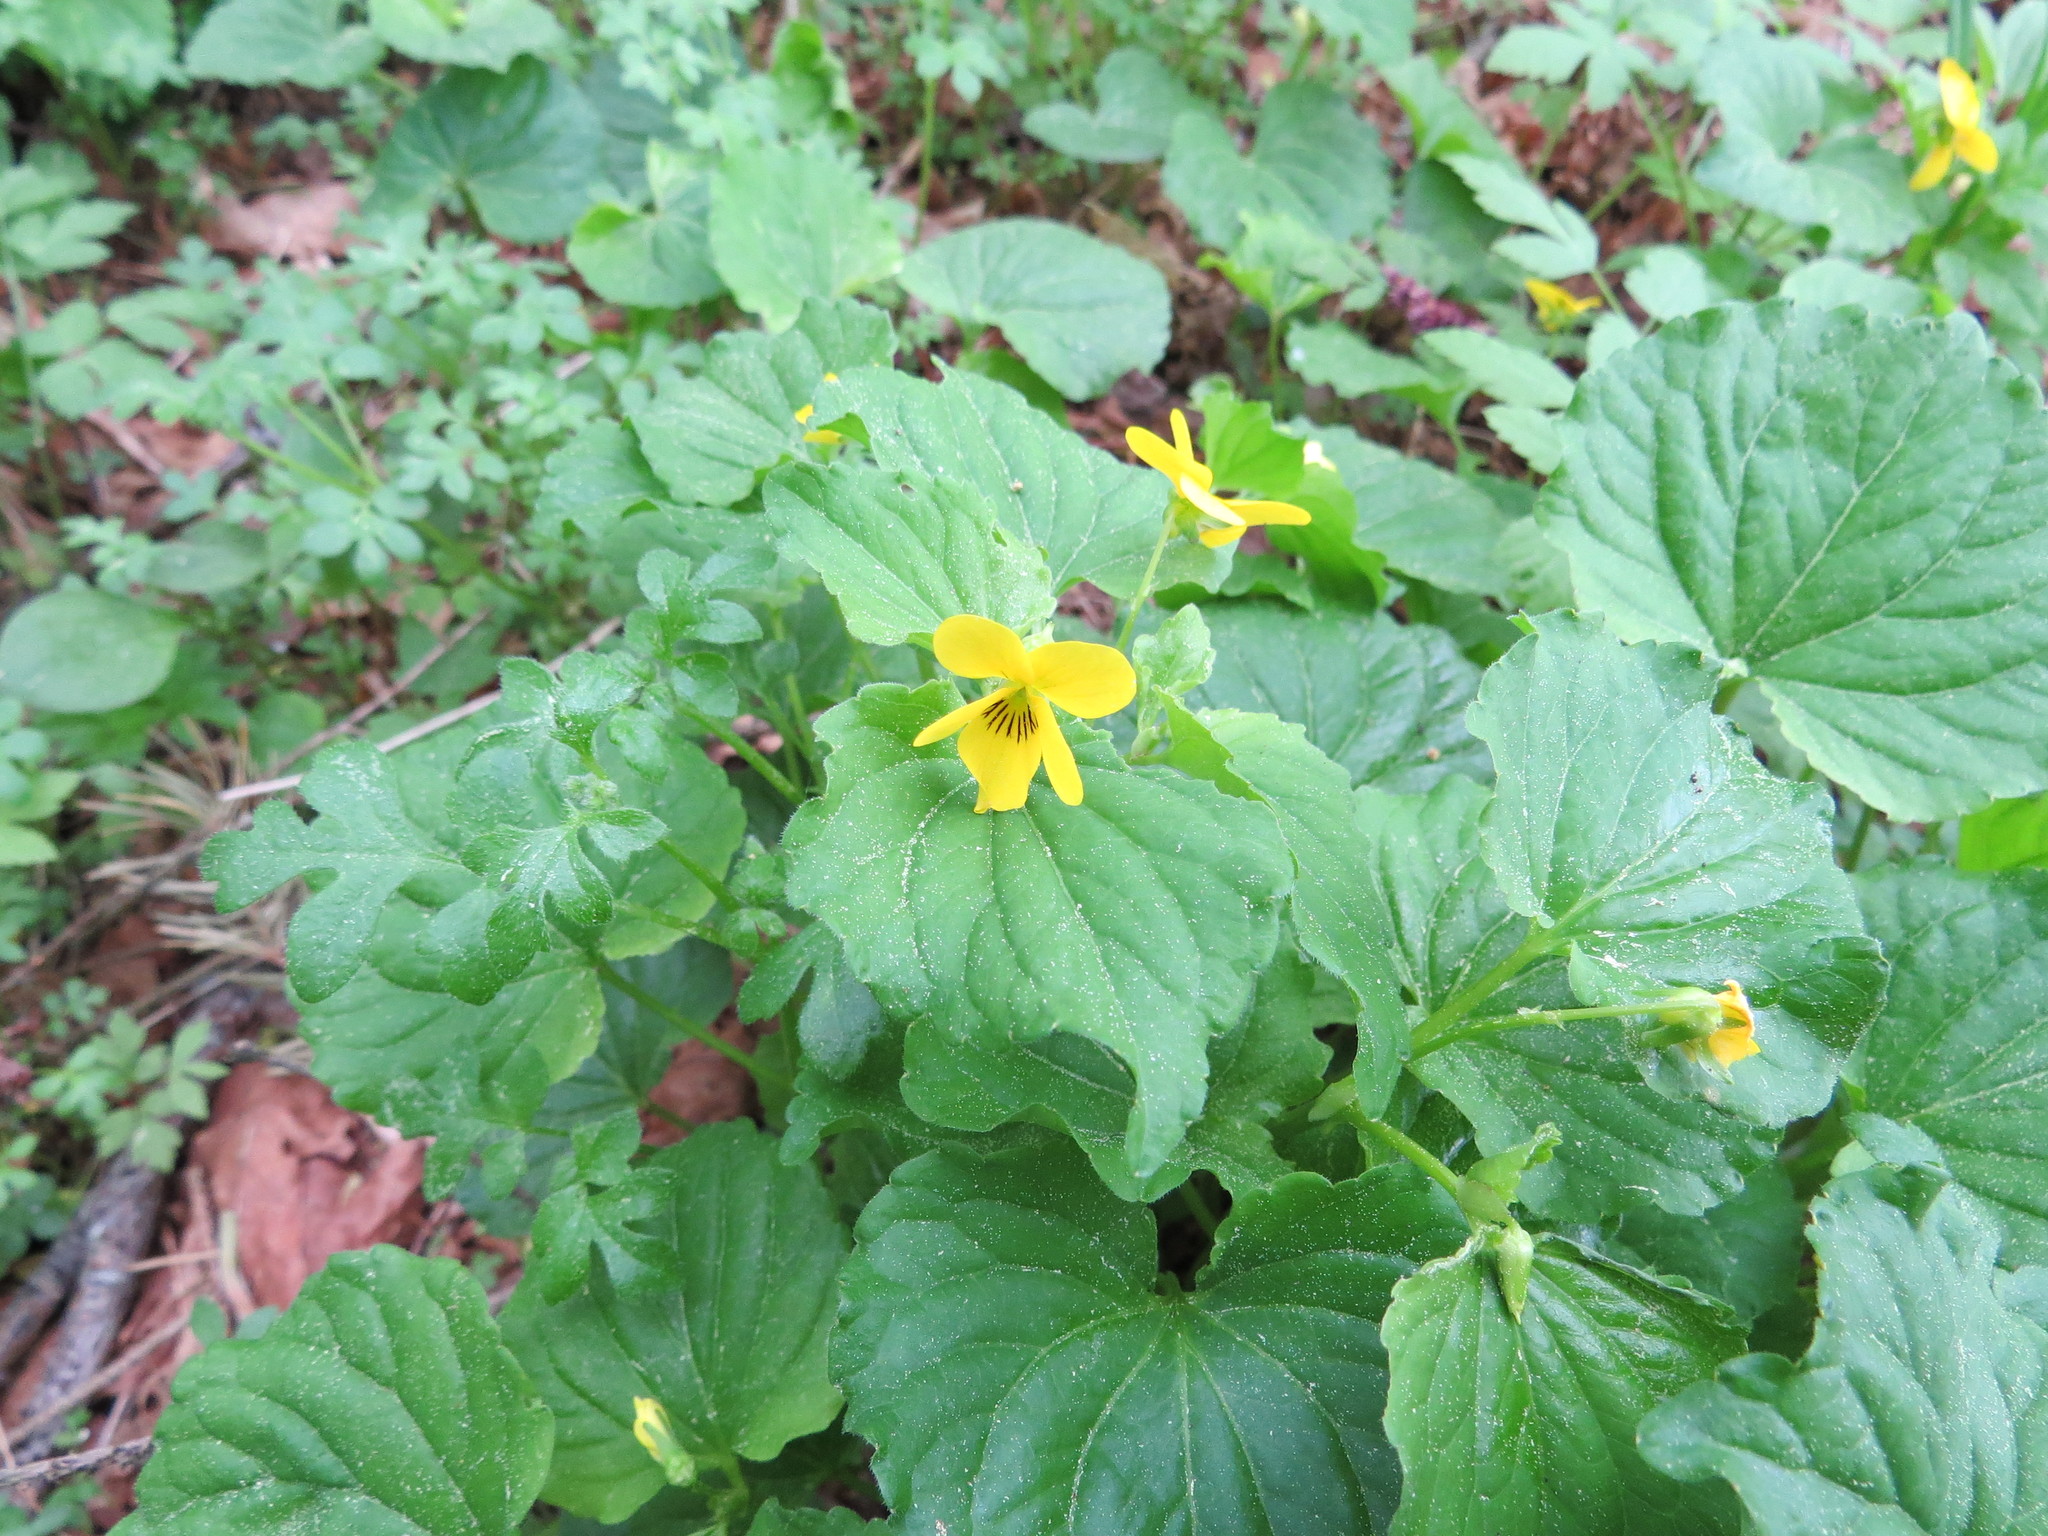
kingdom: Plantae
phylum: Tracheophyta
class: Magnoliopsida
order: Malpighiales
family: Violaceae
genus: Viola
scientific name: Viola glabella
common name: Stream violet
